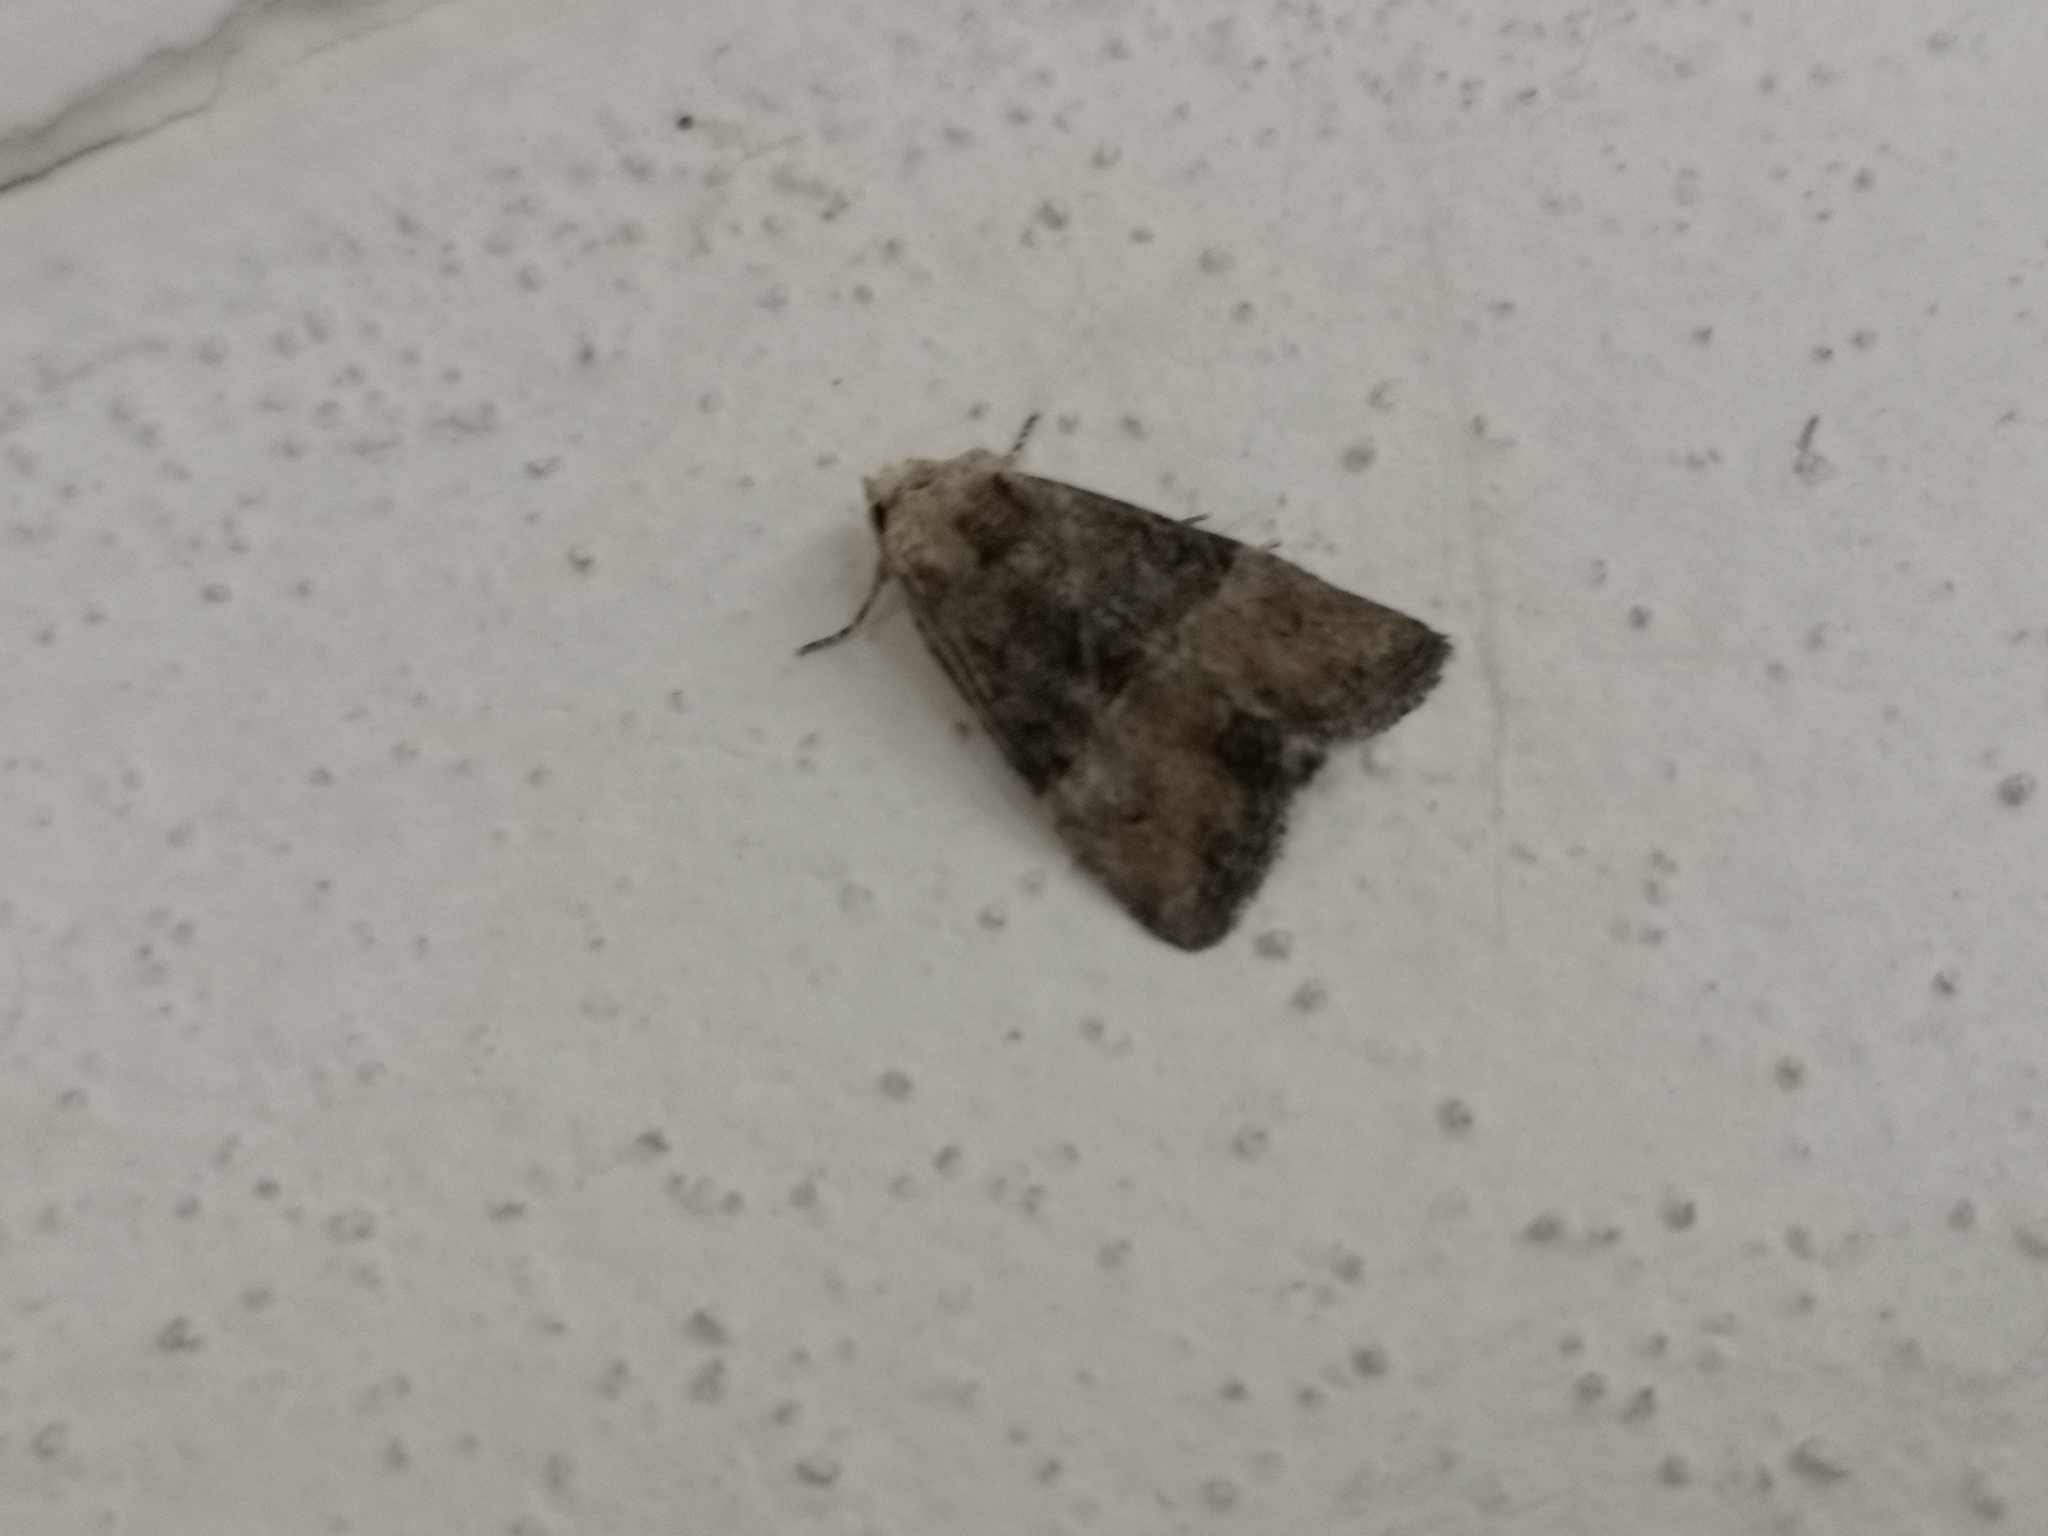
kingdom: Animalia
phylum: Arthropoda
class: Insecta
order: Lepidoptera
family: Noctuidae
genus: Mesoligia
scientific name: Mesoligia furuncula
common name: Cloaked minor
